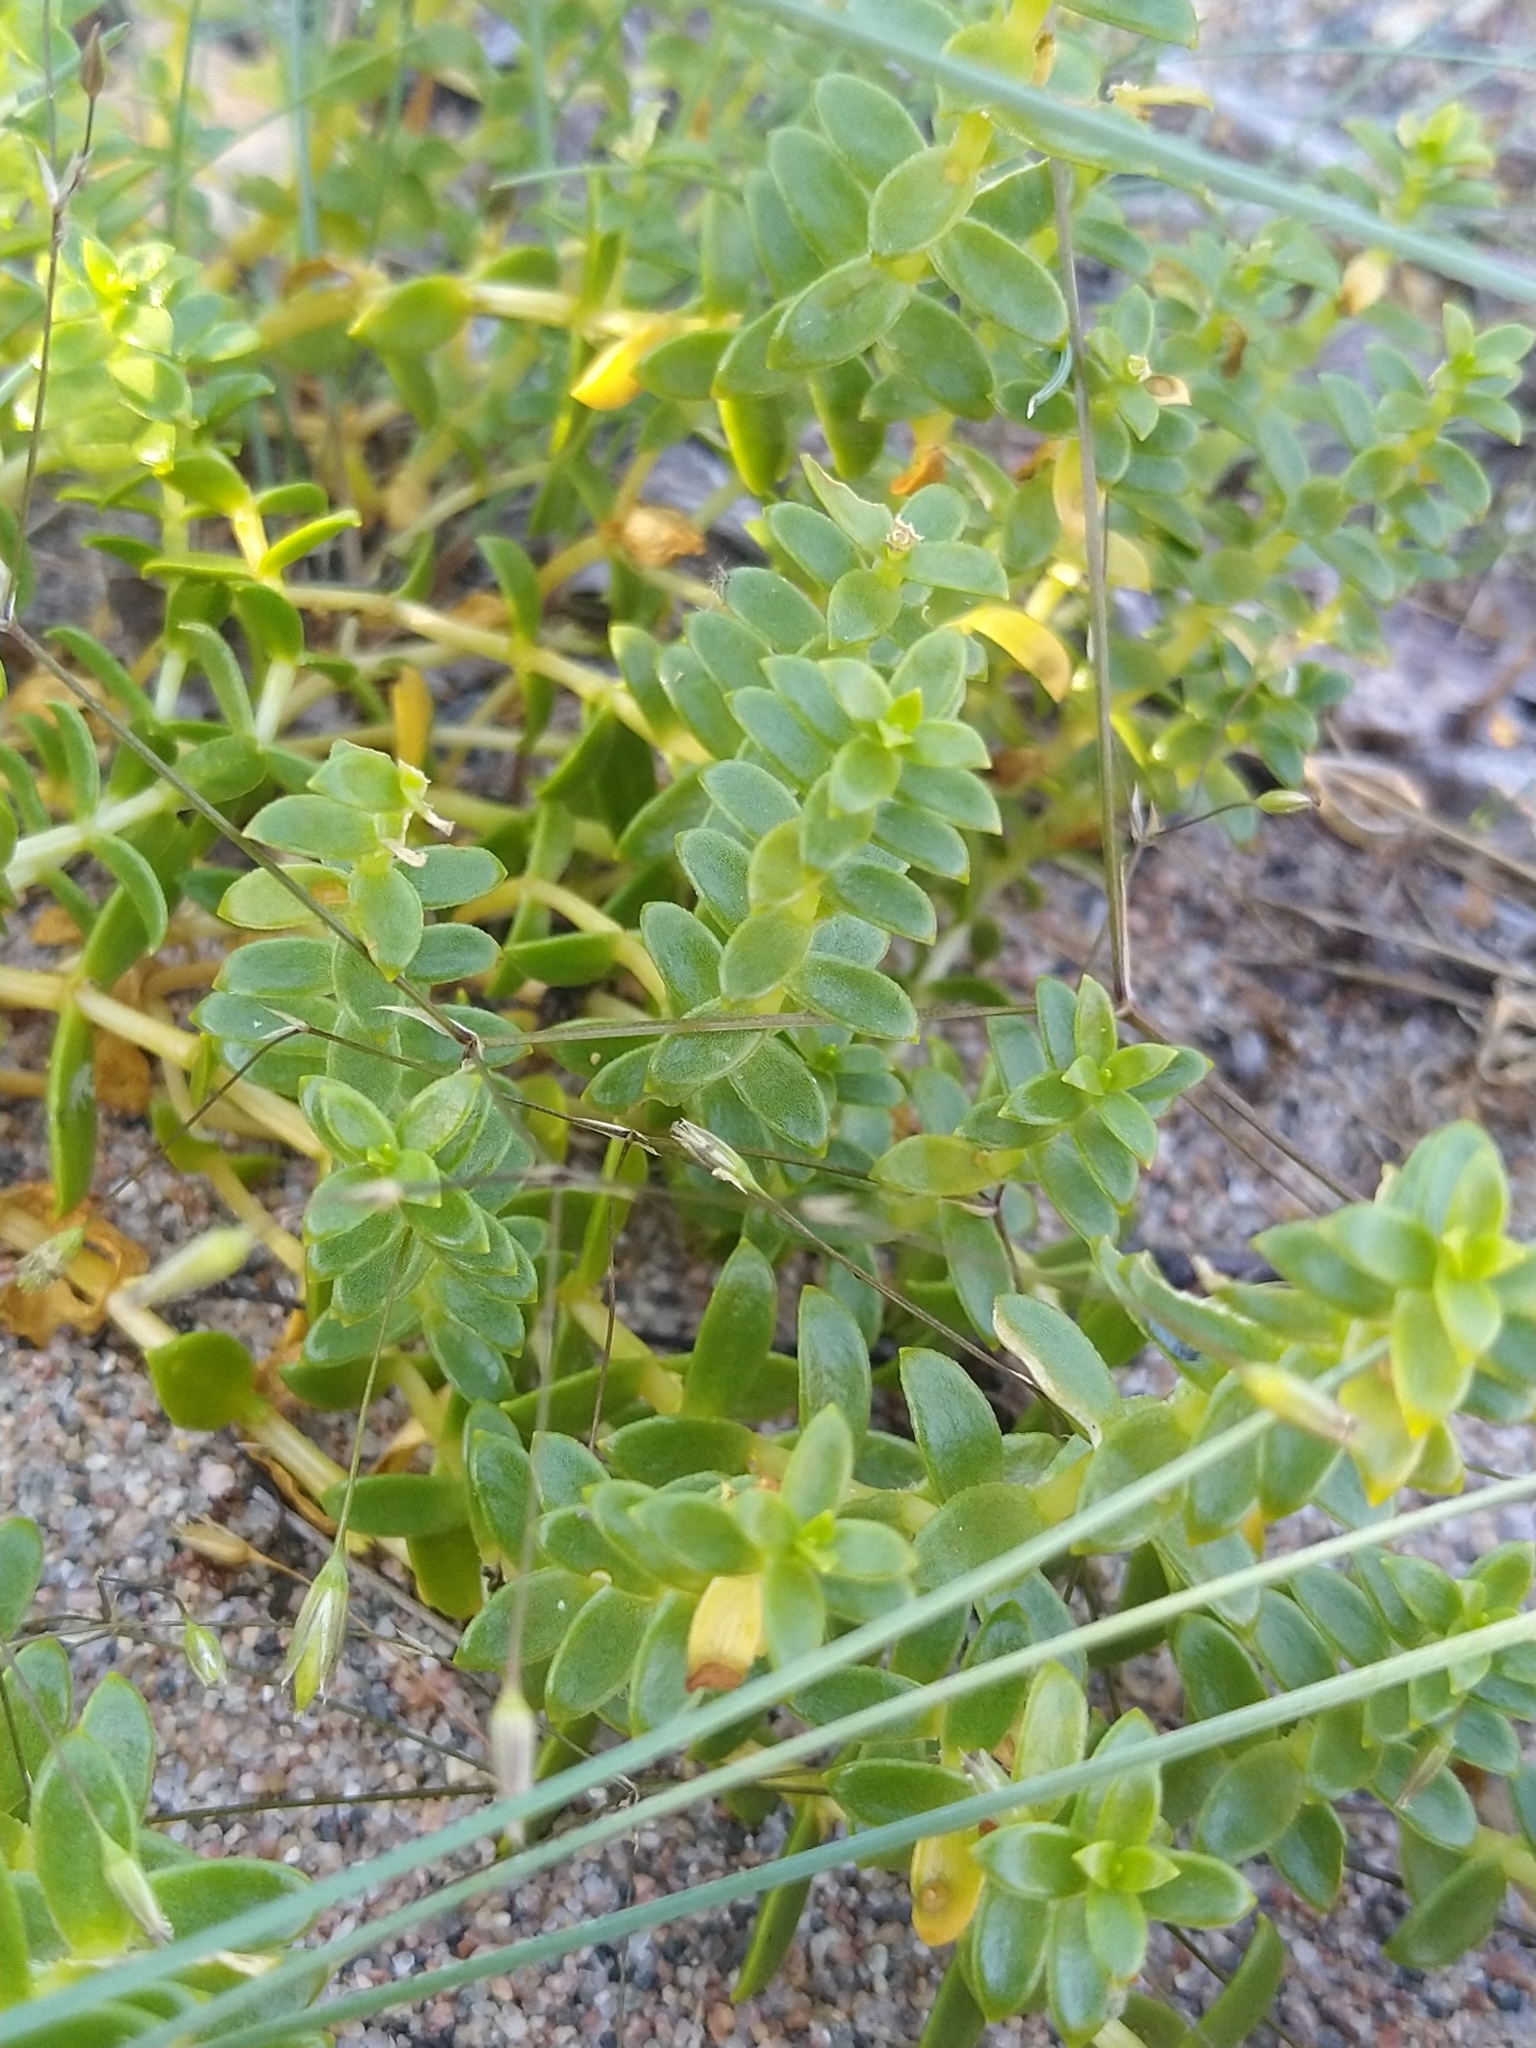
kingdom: Plantae
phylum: Tracheophyta
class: Magnoliopsida
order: Caryophyllales
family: Caryophyllaceae
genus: Honckenya
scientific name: Honckenya peploides
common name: Sea sandwort
